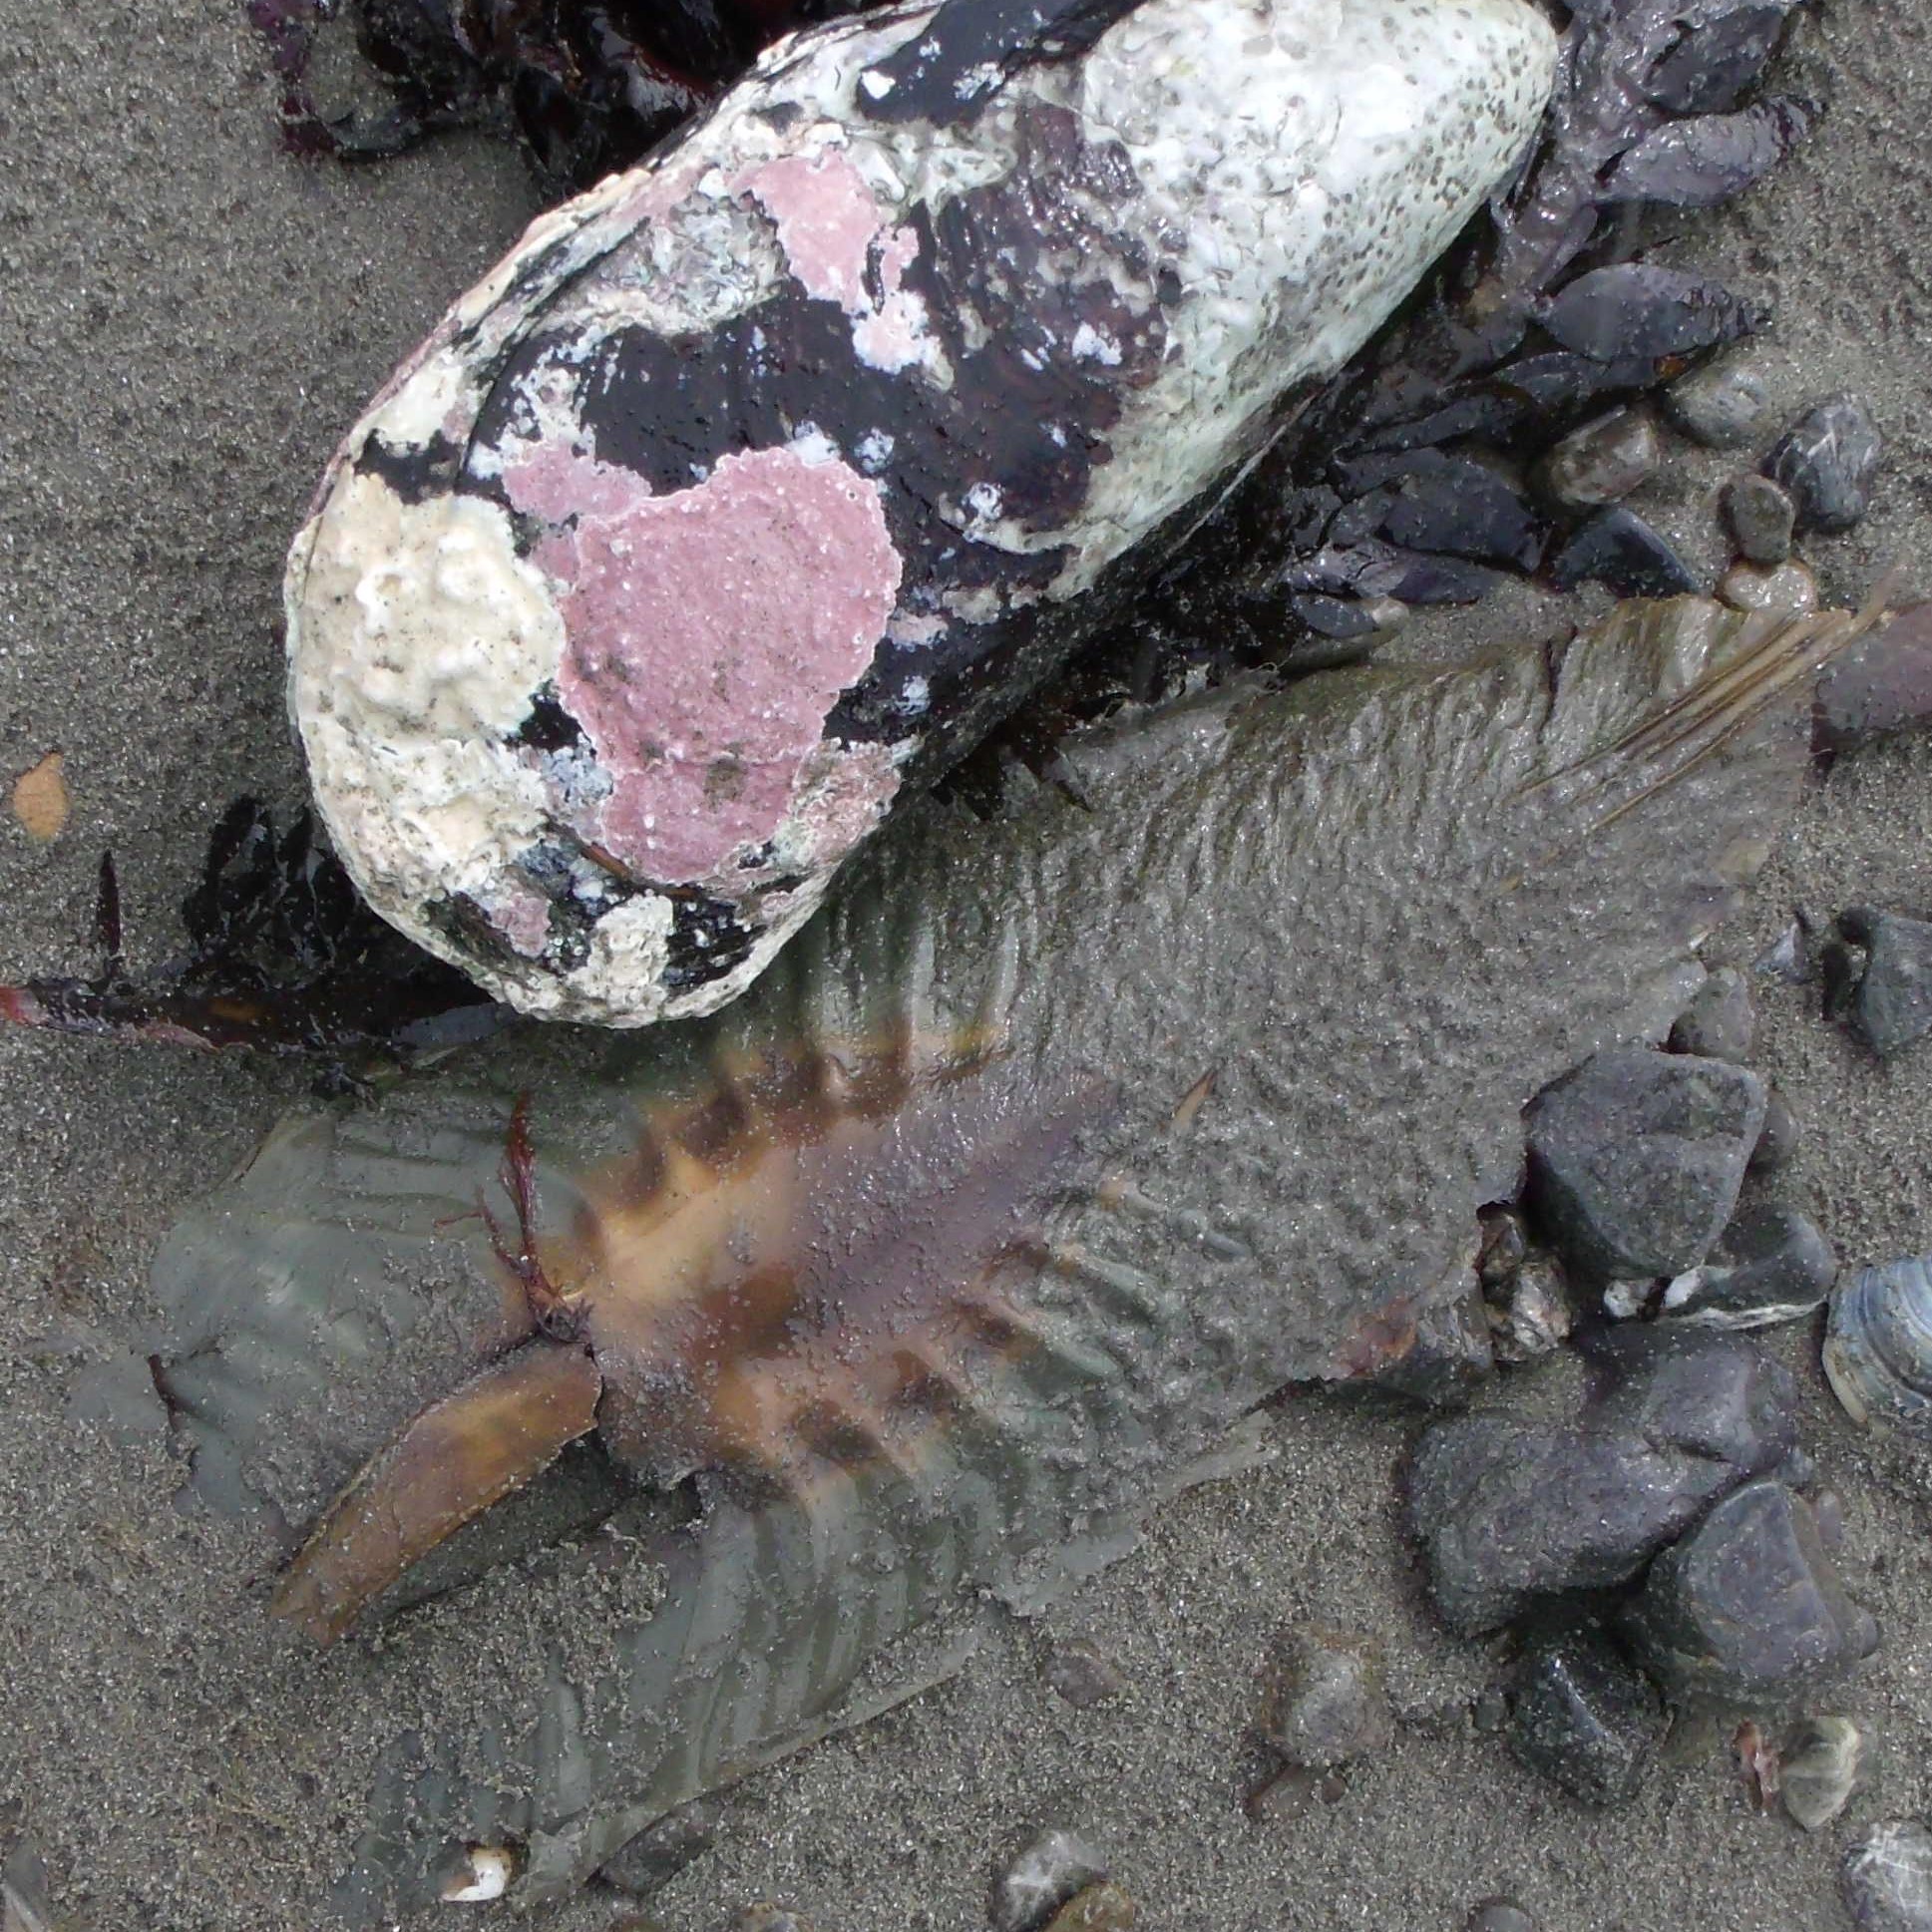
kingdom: Animalia
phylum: Chordata
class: Holocephali
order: Chimaeriformes
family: Callorhinchidae
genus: Callorhinchus
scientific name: Callorhinchus milii
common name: Elephant fish
